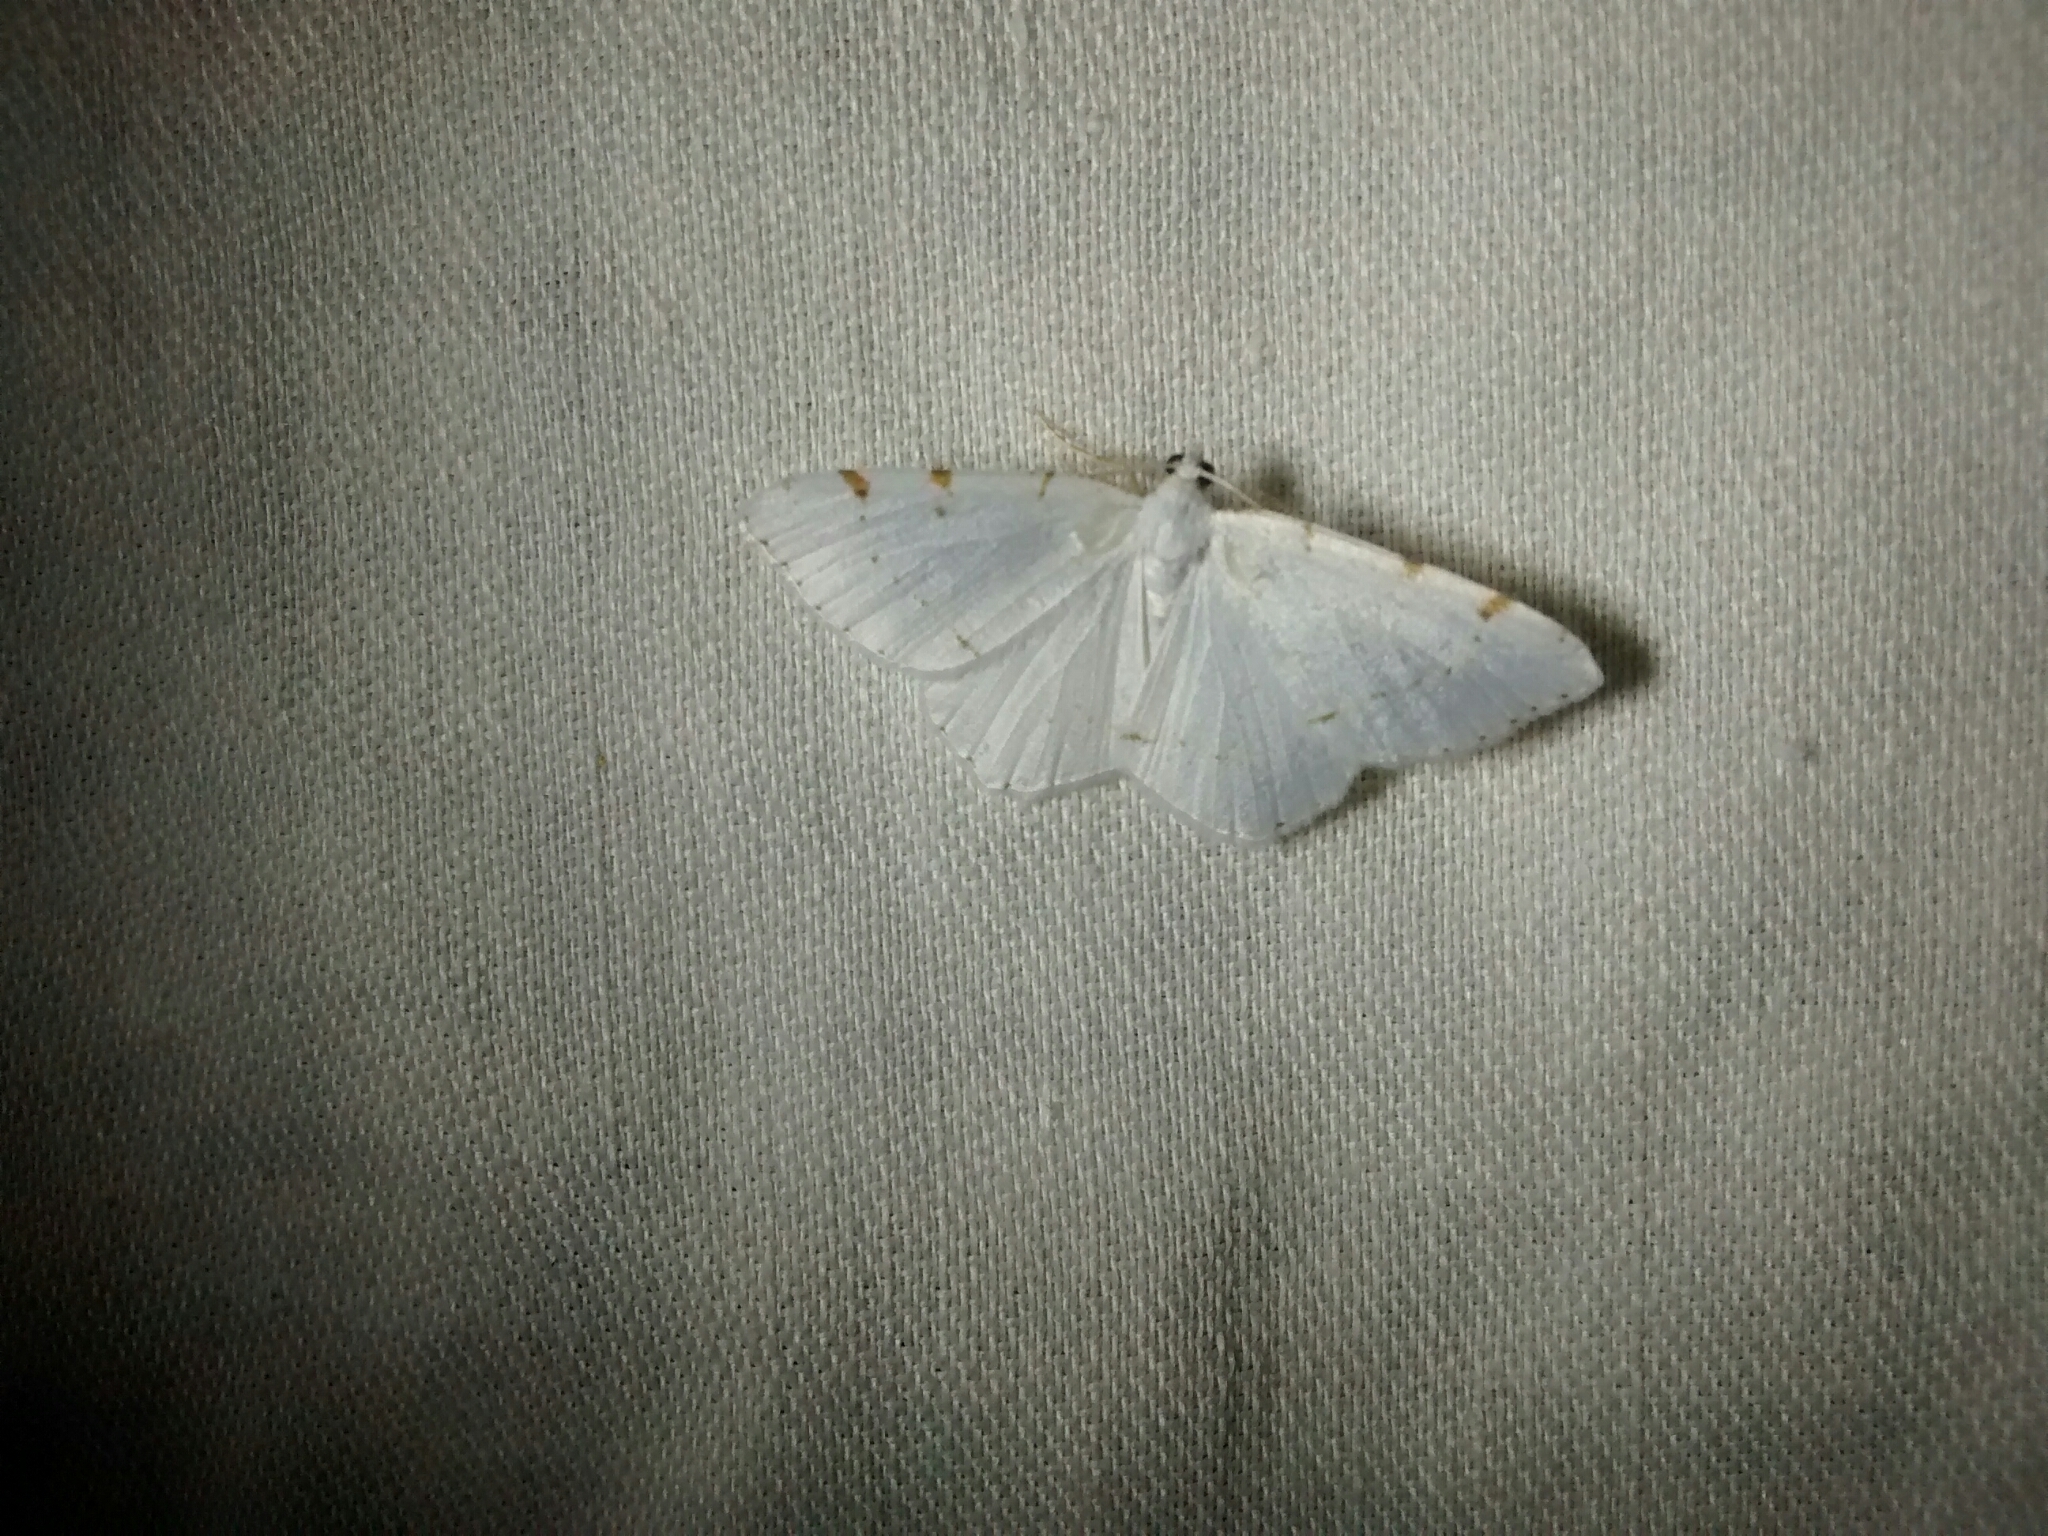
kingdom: Animalia
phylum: Arthropoda
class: Insecta
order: Lepidoptera
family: Geometridae
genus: Macaria
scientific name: Macaria pustularia
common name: Lesser maple spanworm moth
